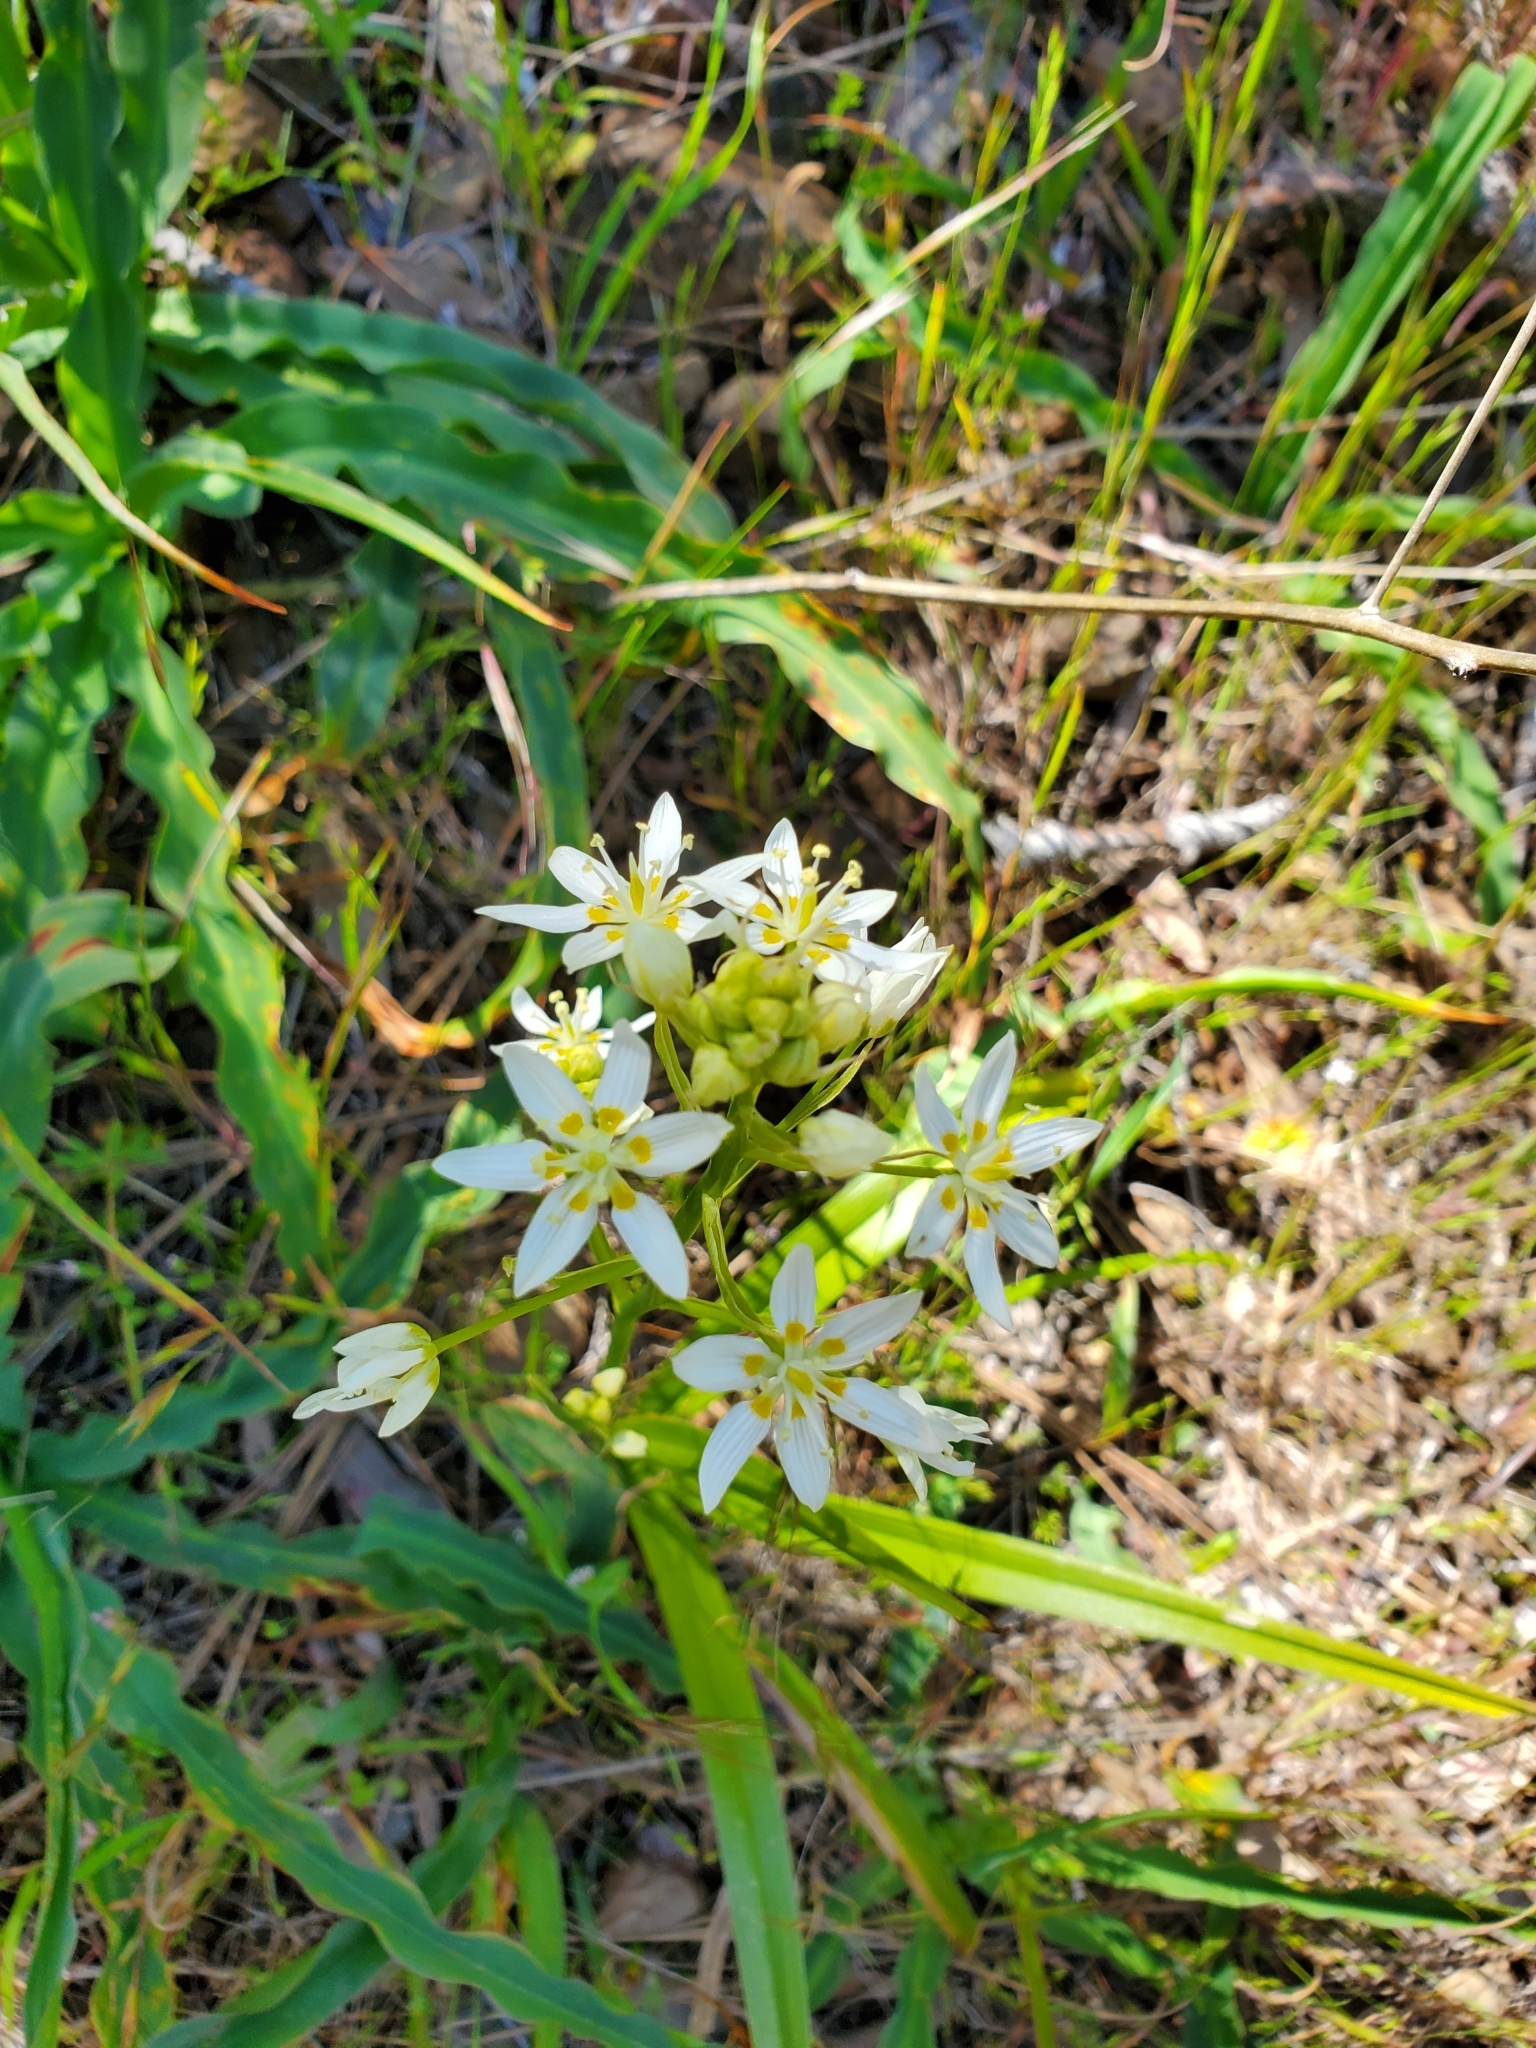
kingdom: Plantae
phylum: Tracheophyta
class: Liliopsida
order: Liliales
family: Melanthiaceae
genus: Toxicoscordion
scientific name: Toxicoscordion fremontii
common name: Fremont's death camas
